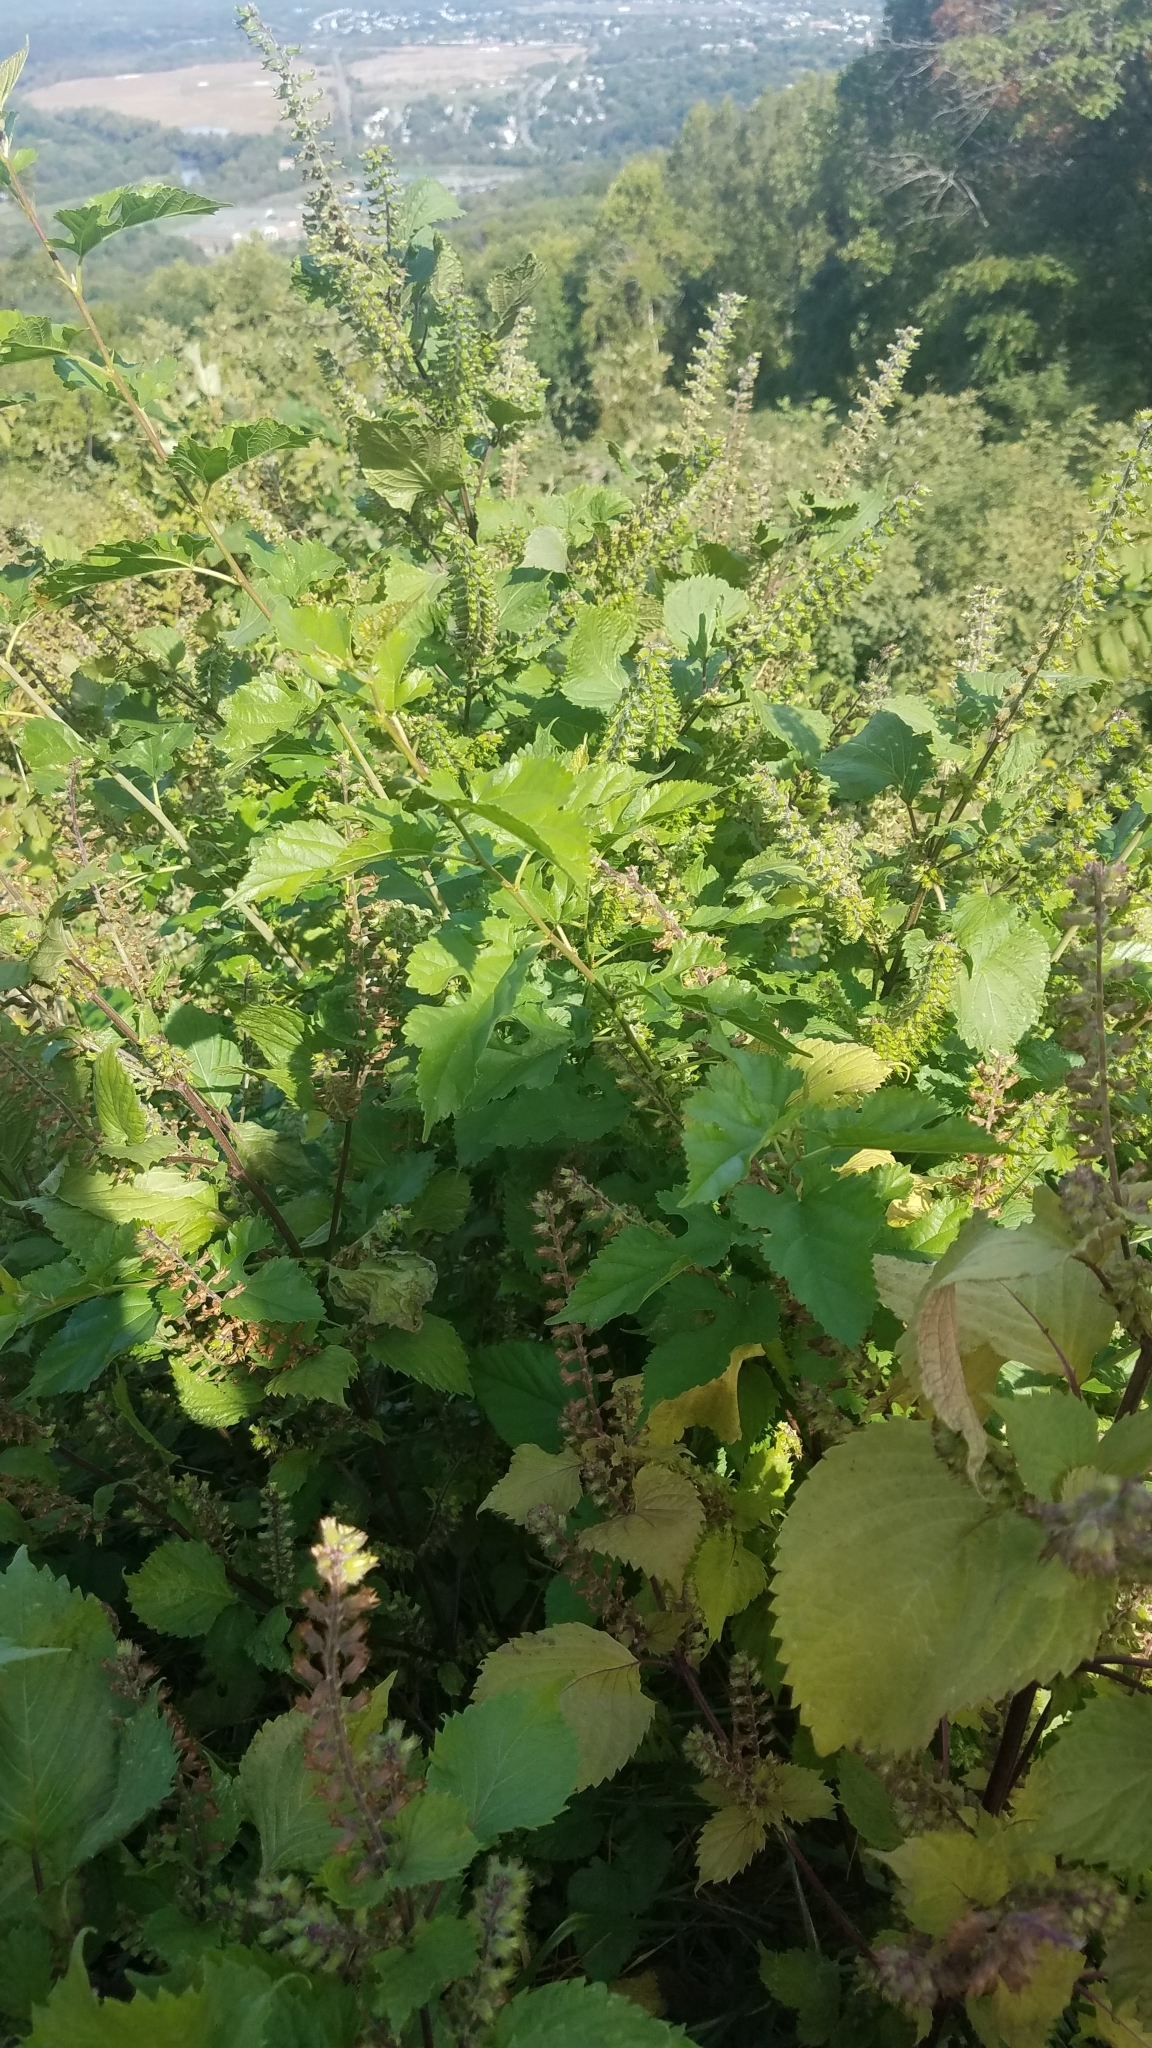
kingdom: Plantae
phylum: Tracheophyta
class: Magnoliopsida
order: Lamiales
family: Lamiaceae
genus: Perilla
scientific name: Perilla frutescens
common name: Perilla
